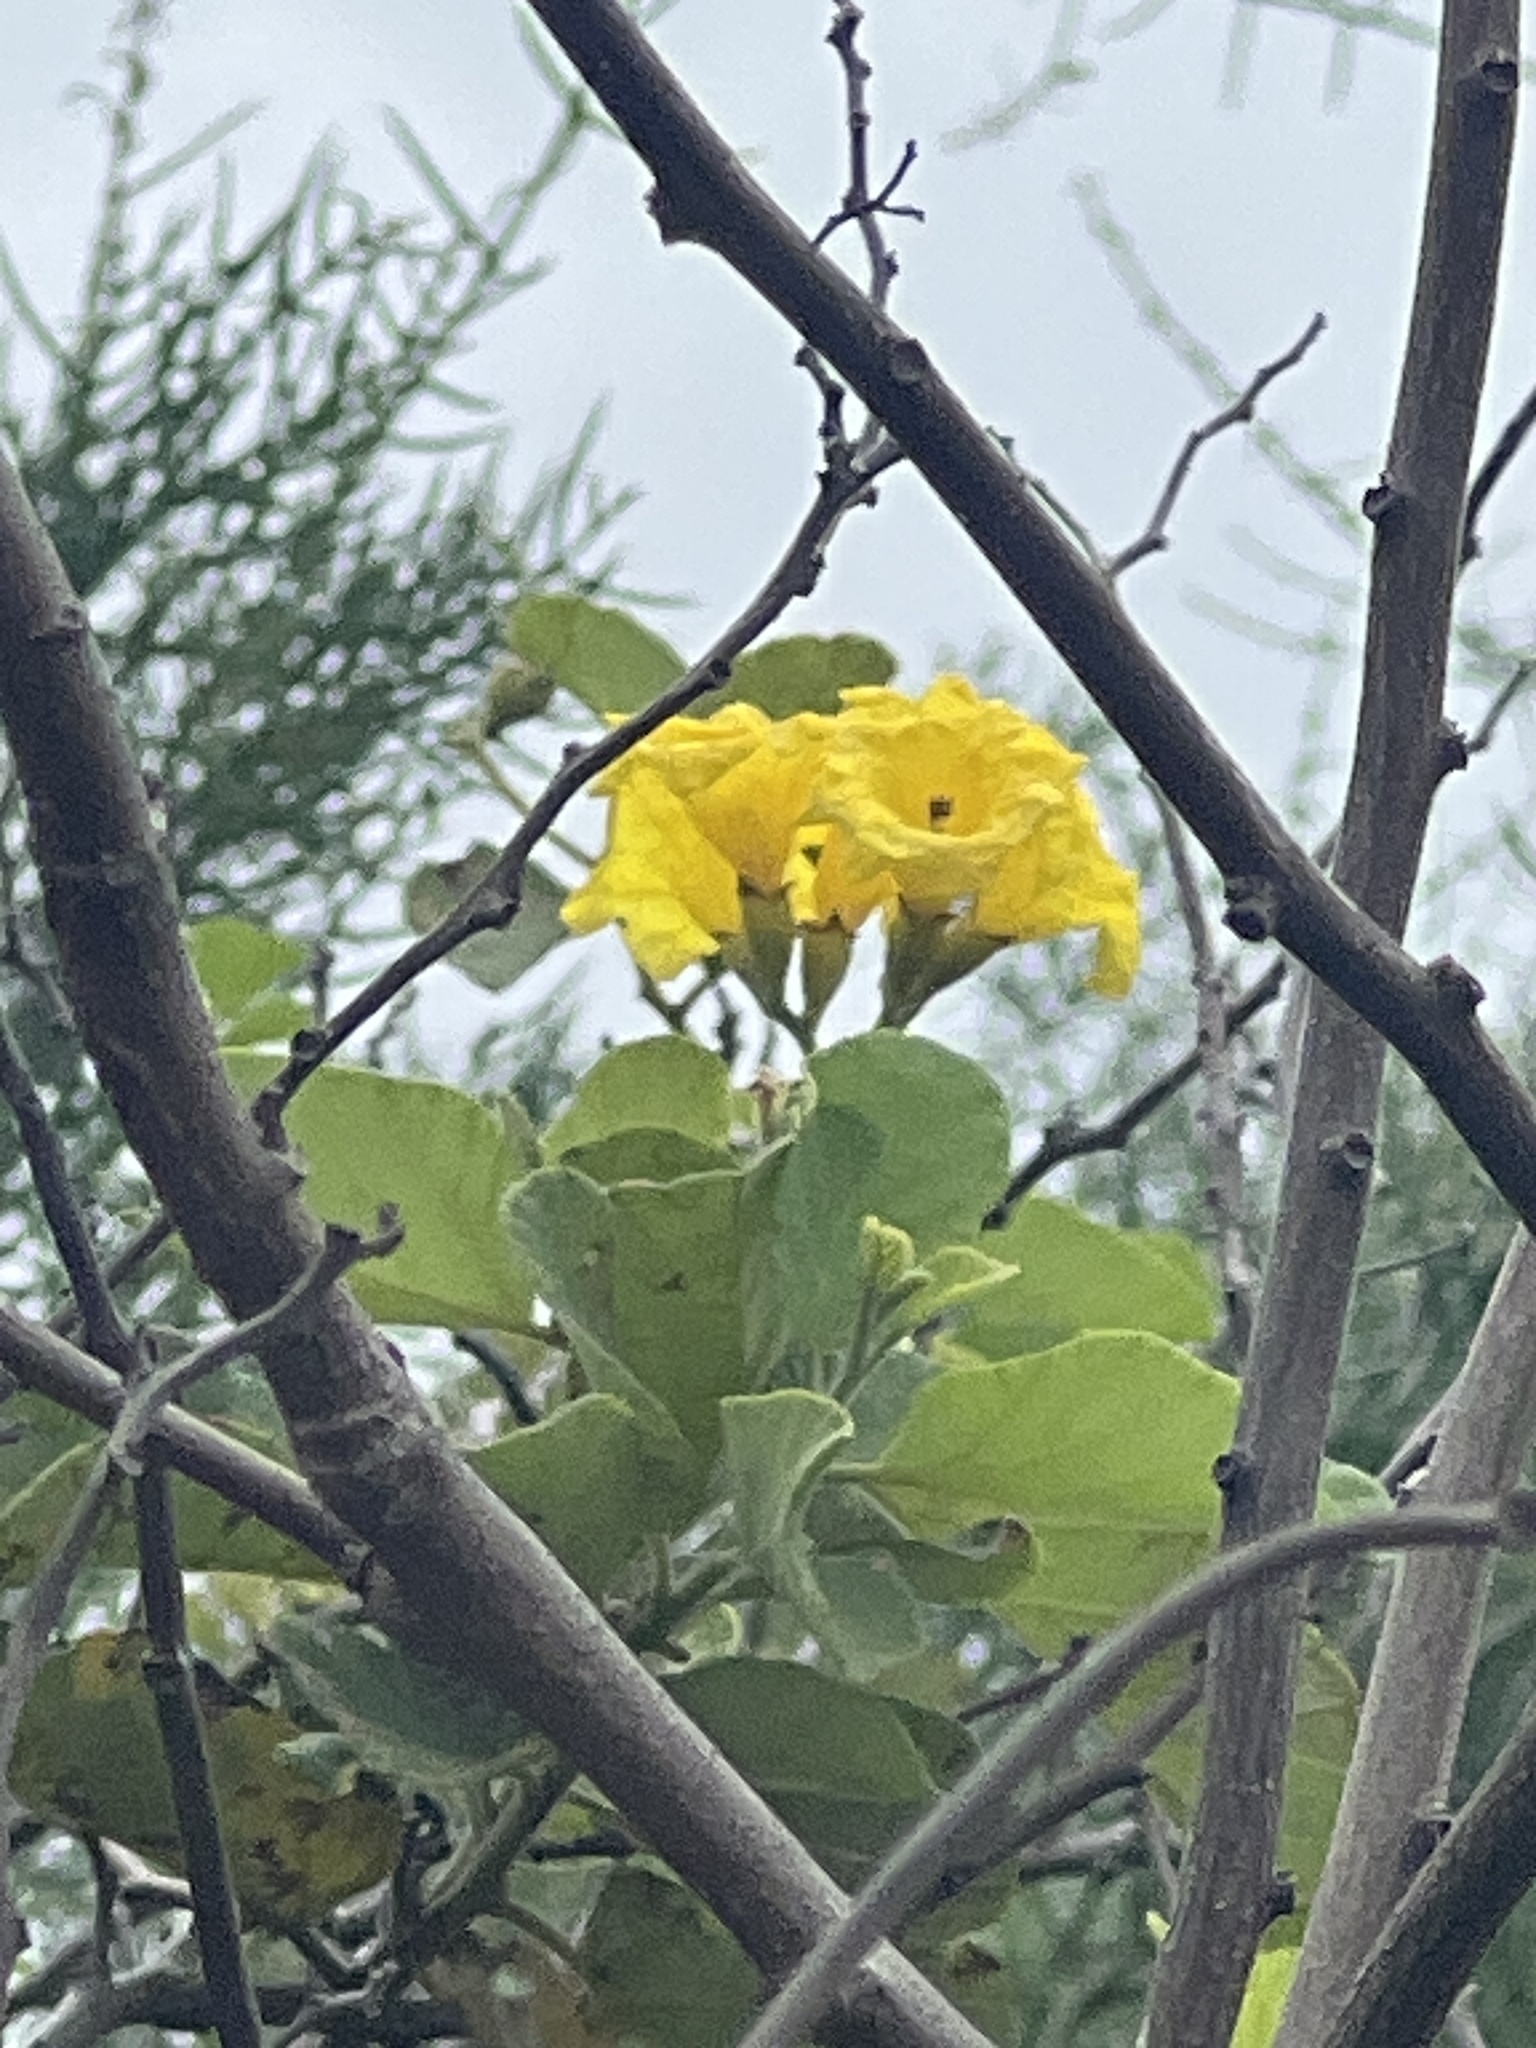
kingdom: Plantae
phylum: Tracheophyta
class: Magnoliopsida
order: Boraginales
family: Cordiaceae
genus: Cordia
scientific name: Cordia lutea
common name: Yellow geiger
